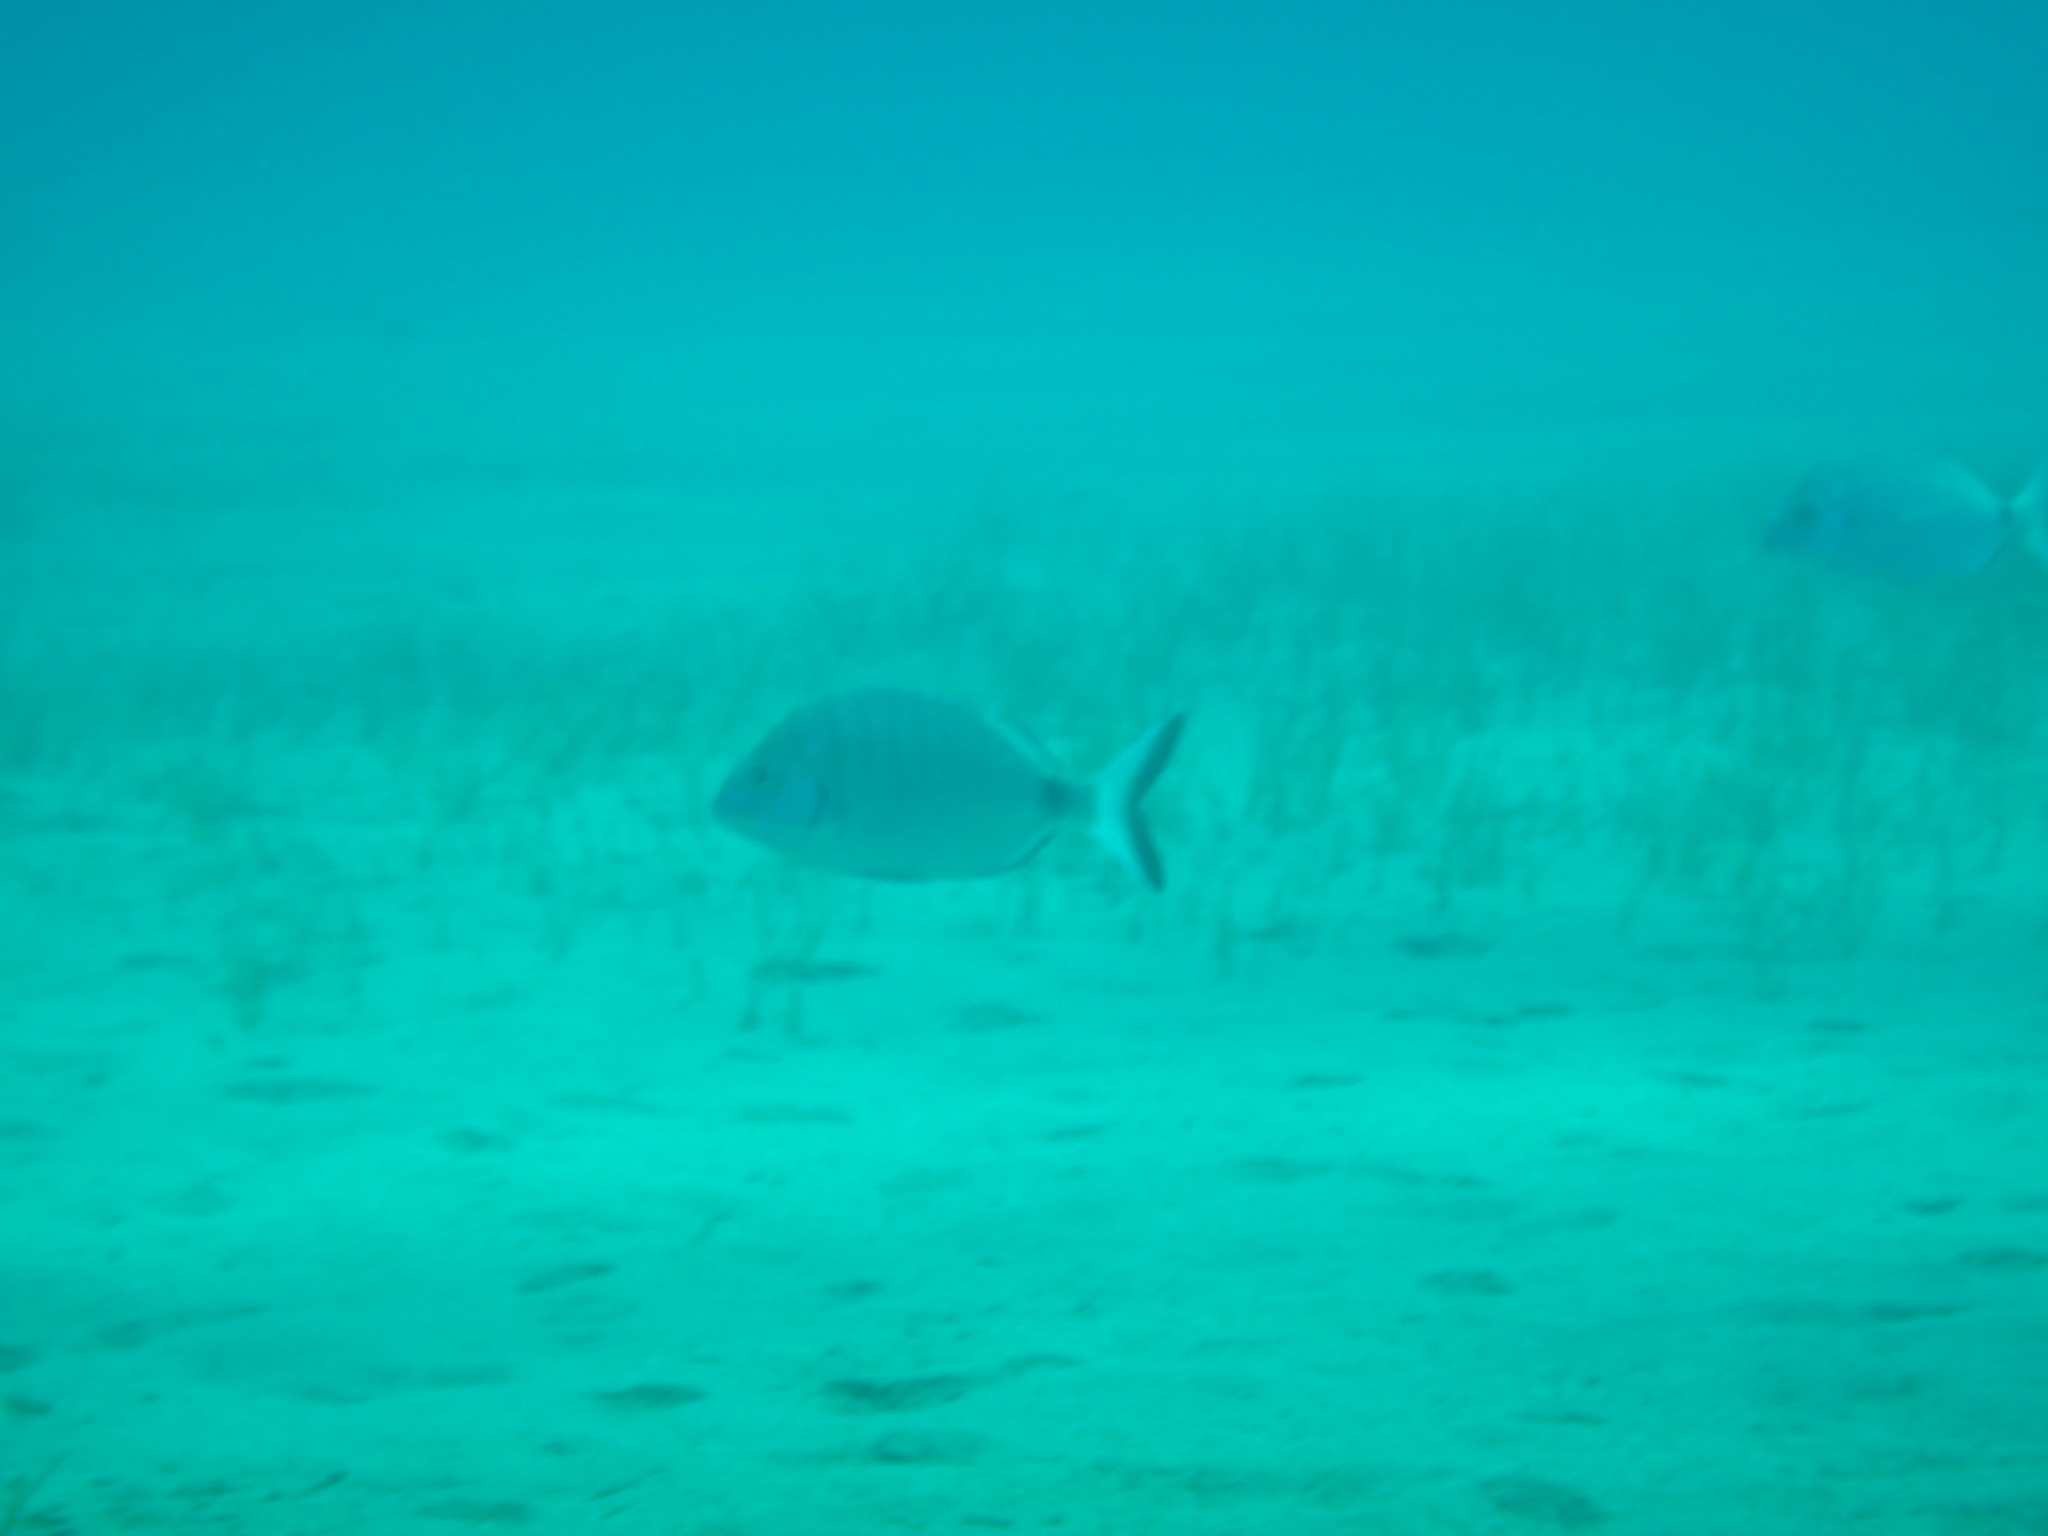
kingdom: Animalia
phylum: Chordata
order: Perciformes
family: Sparidae
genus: Diplodus
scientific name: Diplodus sargus
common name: White seabream
